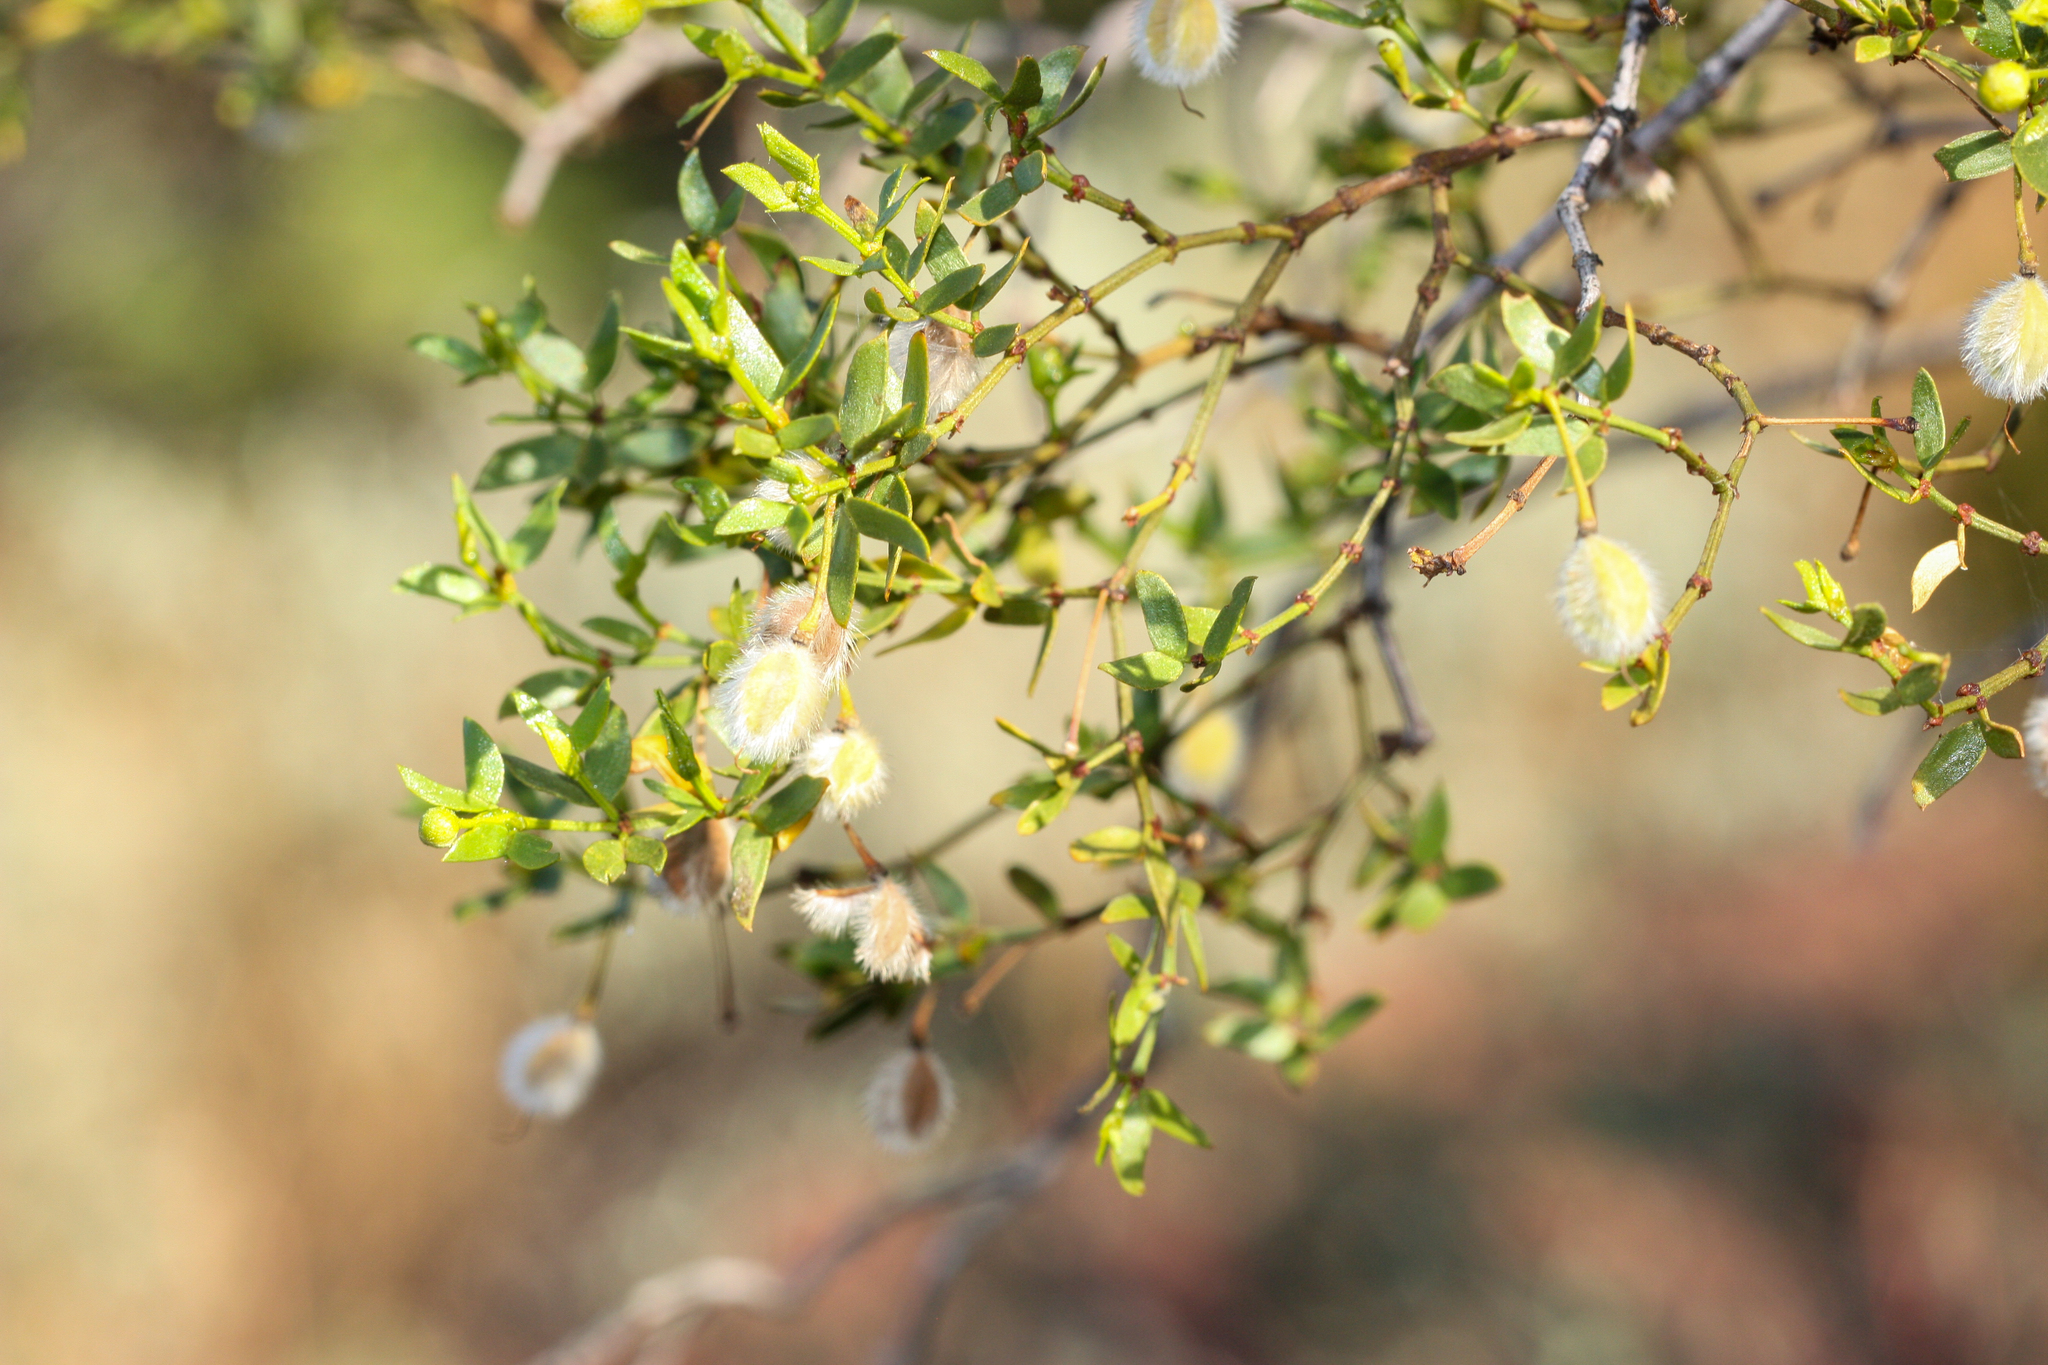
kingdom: Plantae
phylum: Tracheophyta
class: Magnoliopsida
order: Zygophyllales
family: Zygophyllaceae
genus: Larrea
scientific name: Larrea tridentata
